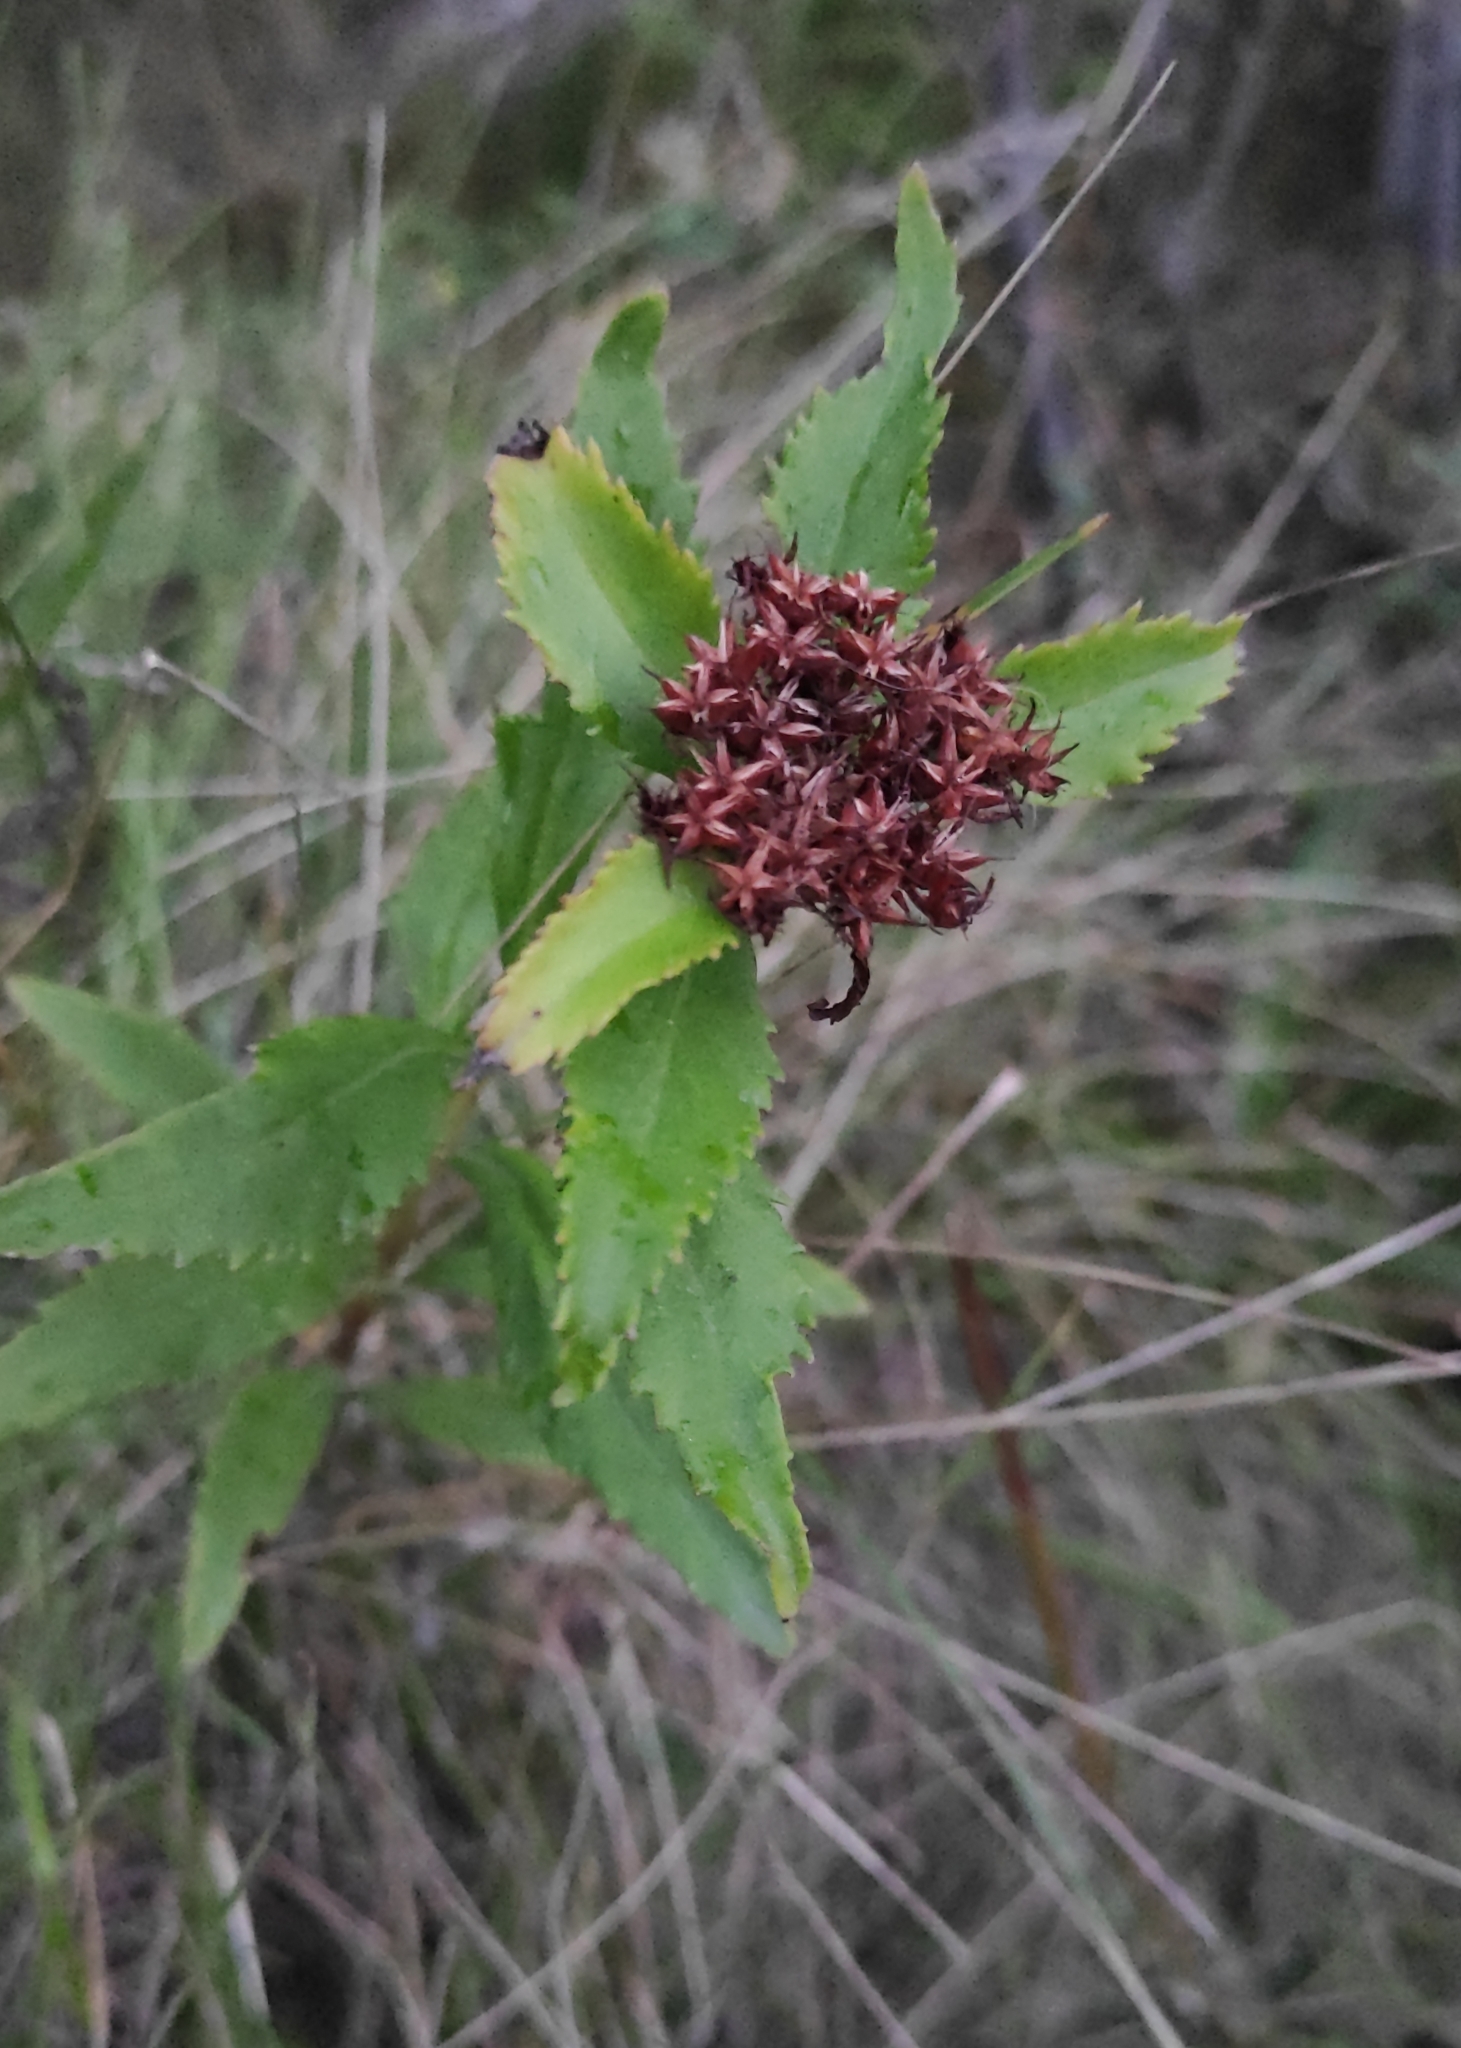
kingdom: Plantae
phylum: Tracheophyta
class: Magnoliopsida
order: Saxifragales
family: Crassulaceae
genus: Phedimus
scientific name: Phedimus aizoon
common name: Orpin aizoon
